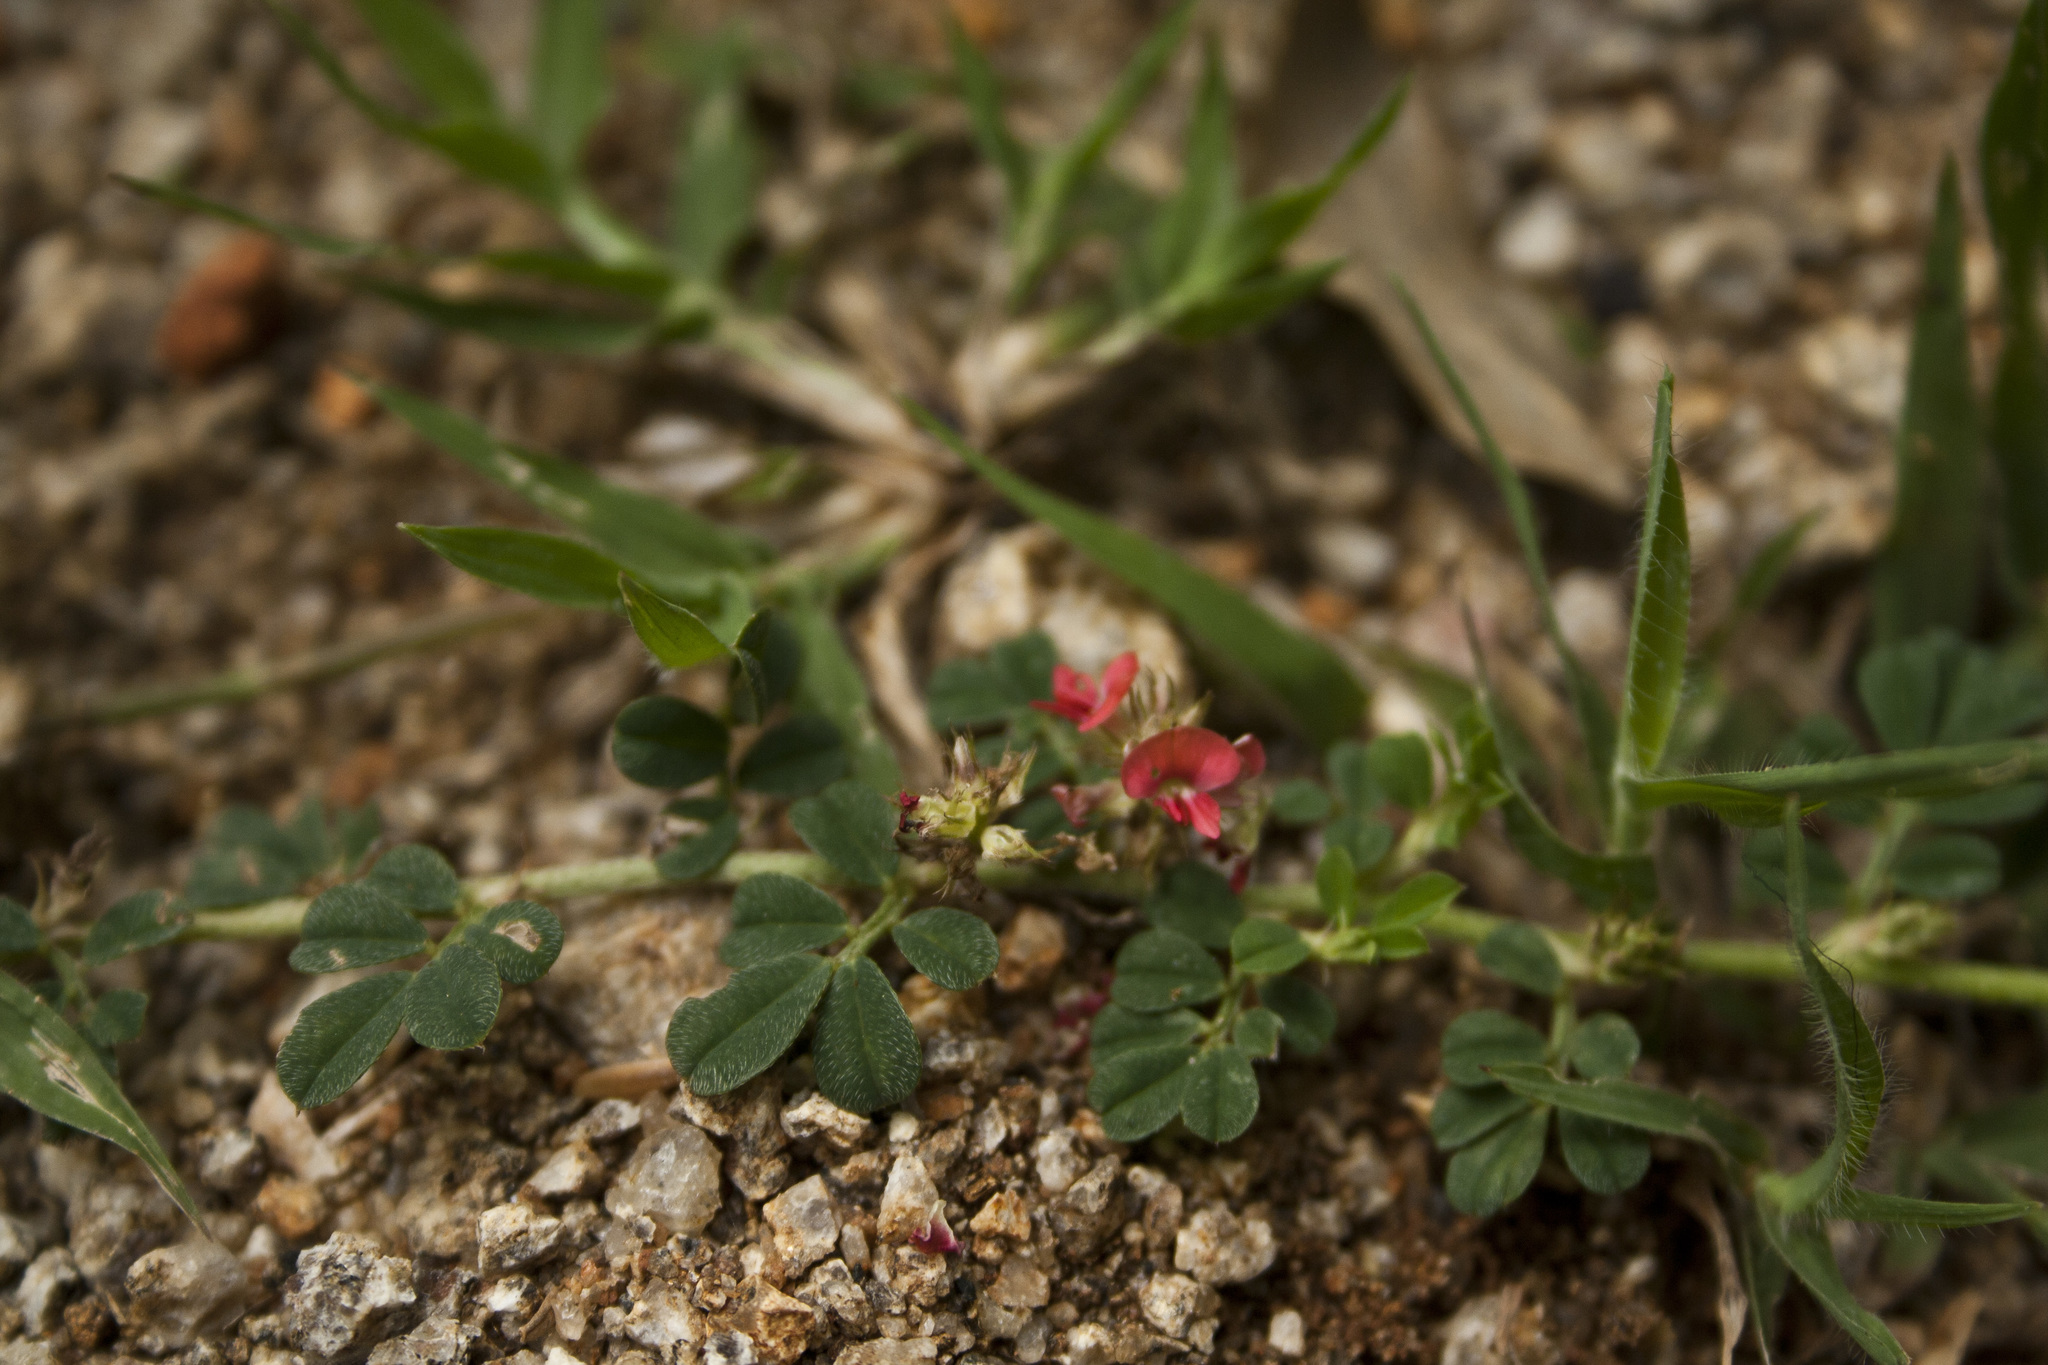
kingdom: Plantae
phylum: Tracheophyta
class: Magnoliopsida
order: Fabales
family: Fabaceae
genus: Indigofera
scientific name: Indigofera linnaei
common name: Nine-leaf indigo
